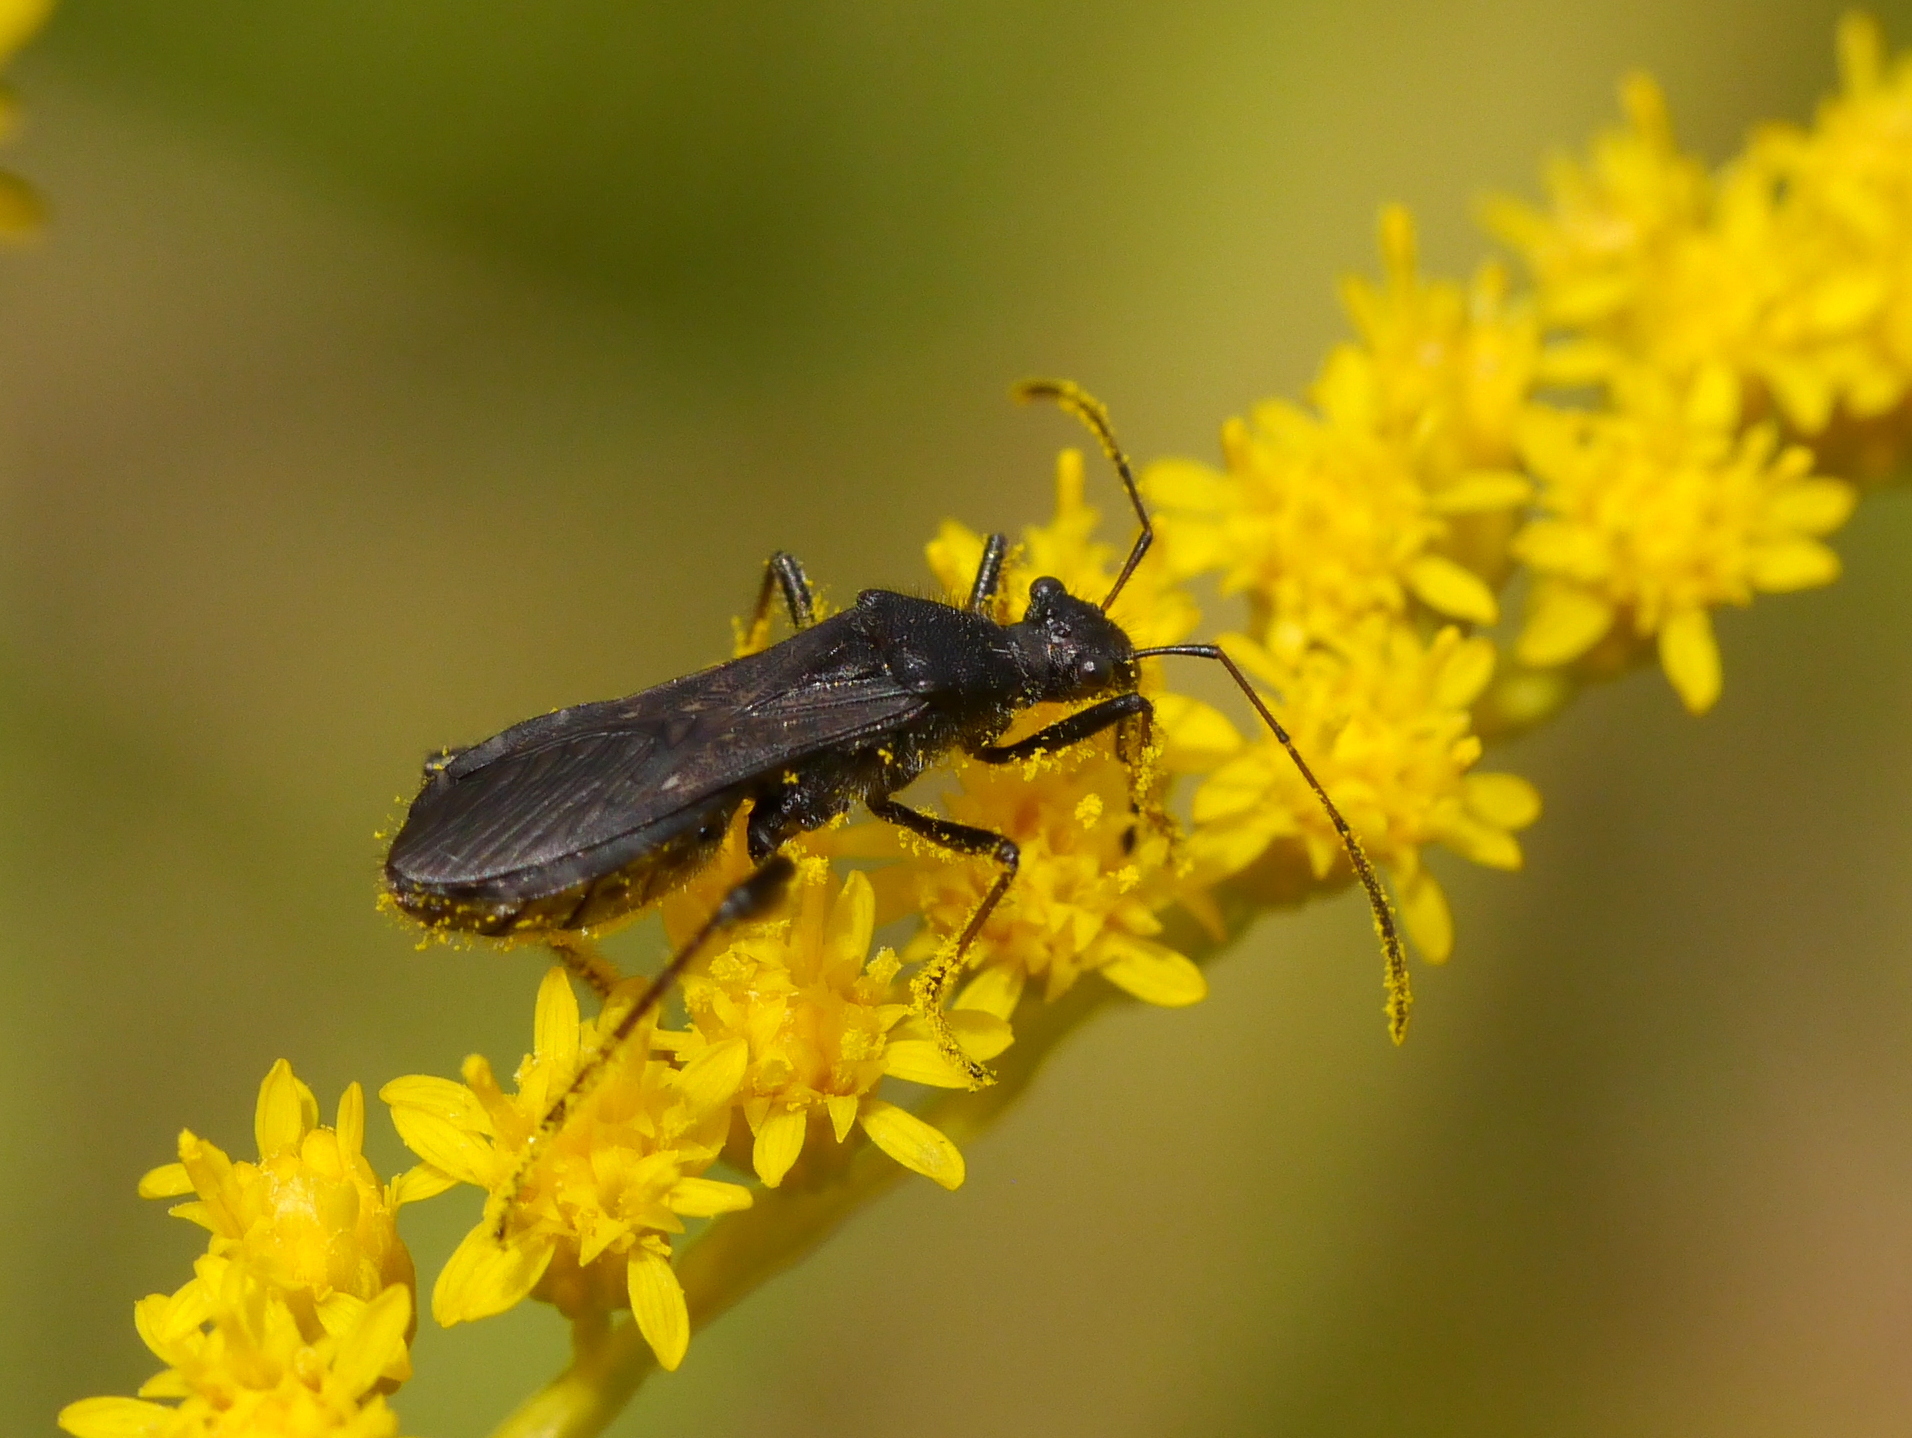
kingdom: Animalia
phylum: Arthropoda
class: Insecta
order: Hemiptera
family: Alydidae
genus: Alydus
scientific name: Alydus eurinus
